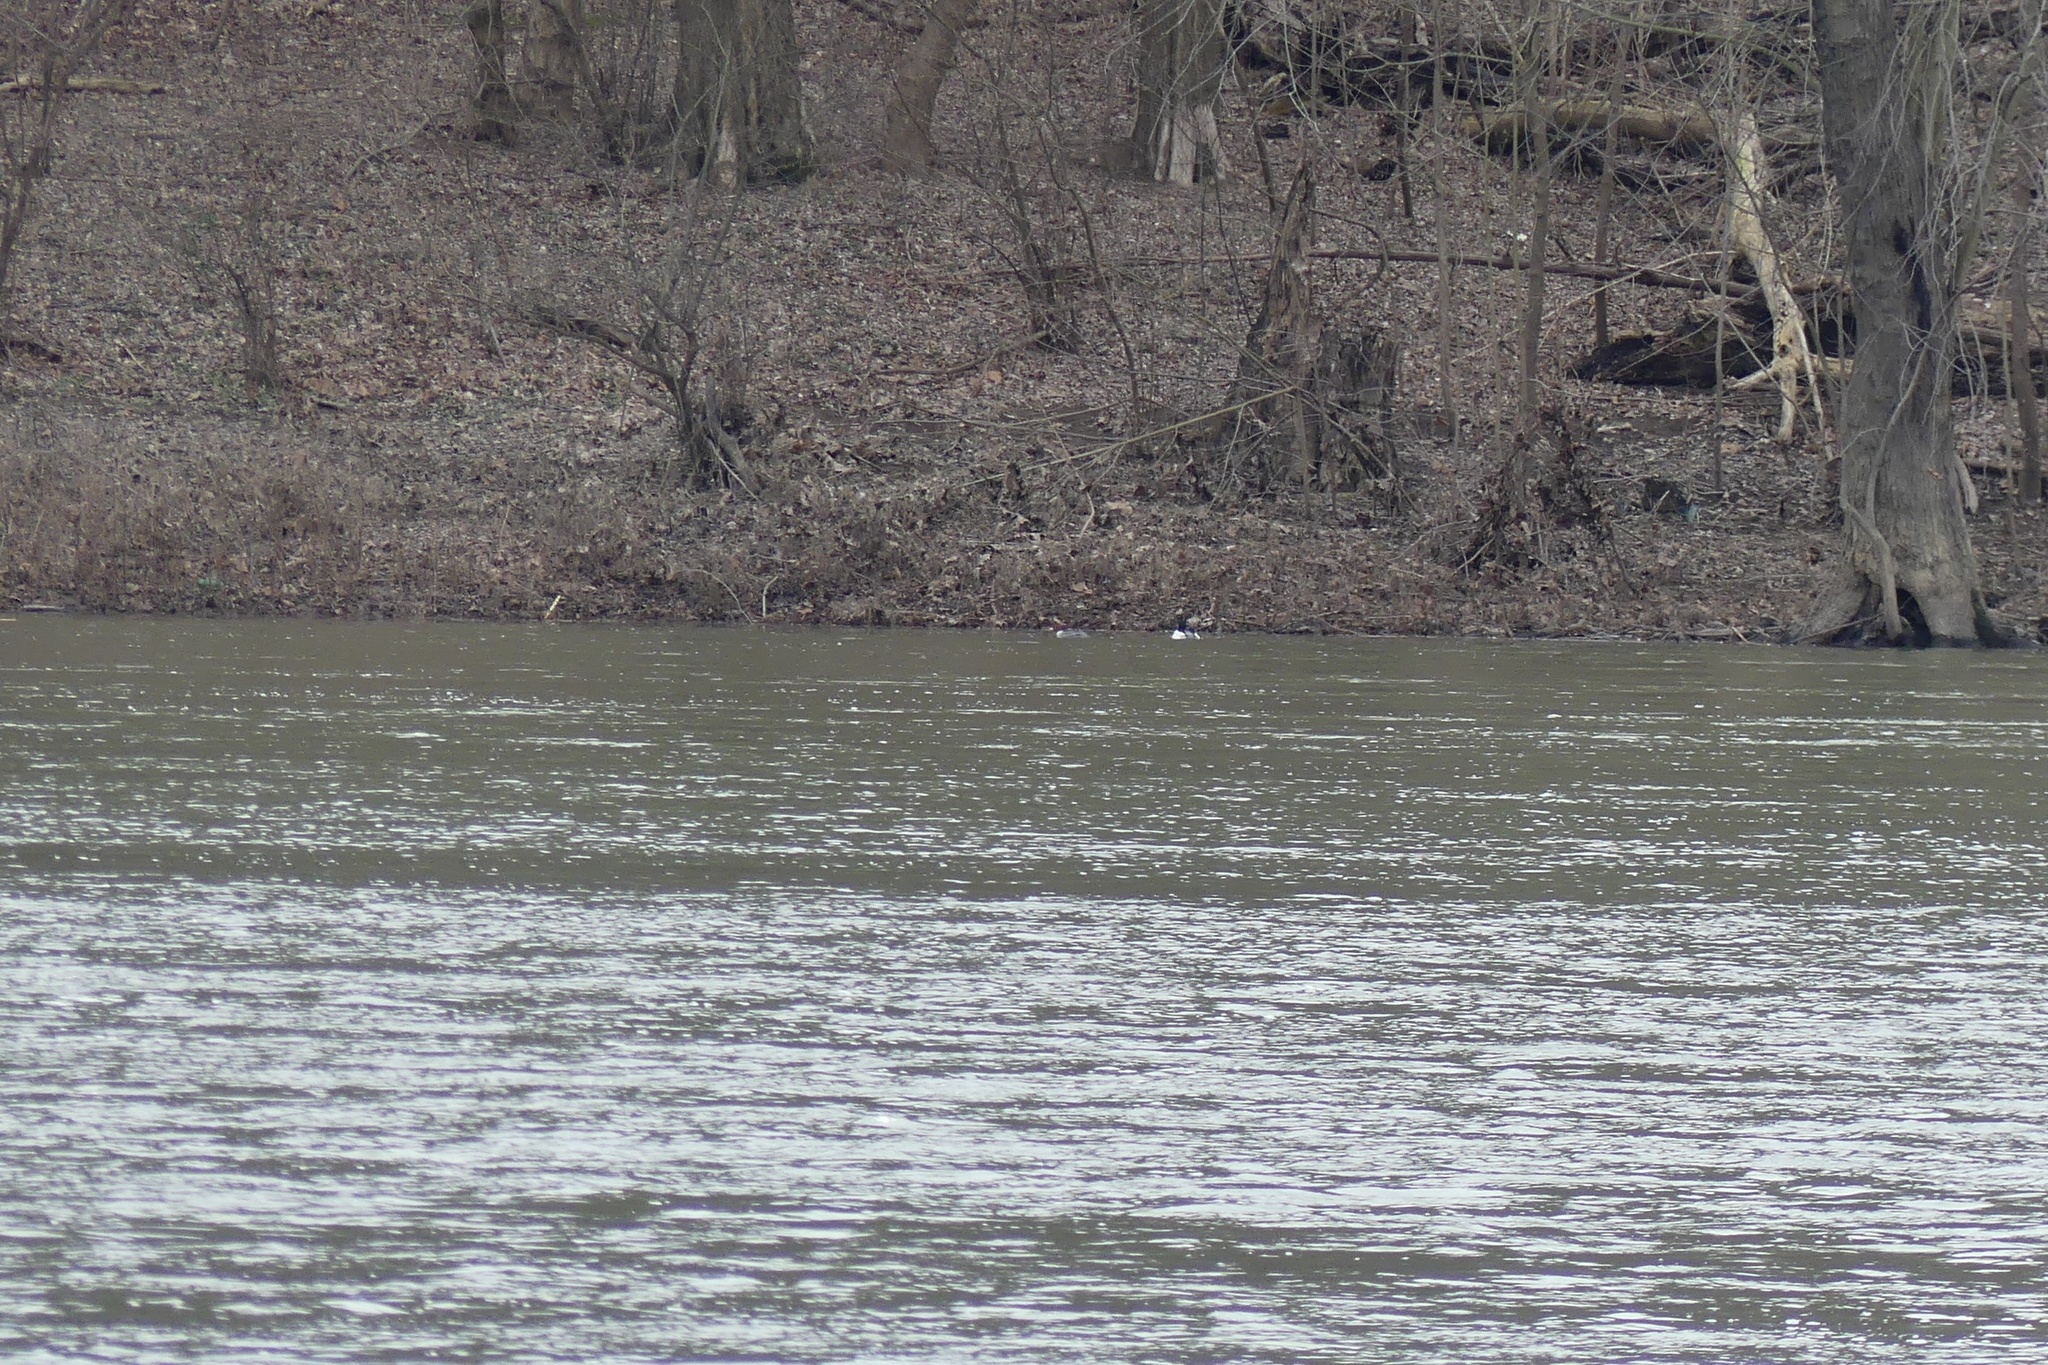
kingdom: Animalia
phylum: Chordata
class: Aves
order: Anseriformes
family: Anatidae
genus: Mergus
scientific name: Mergus merganser
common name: Common merganser
